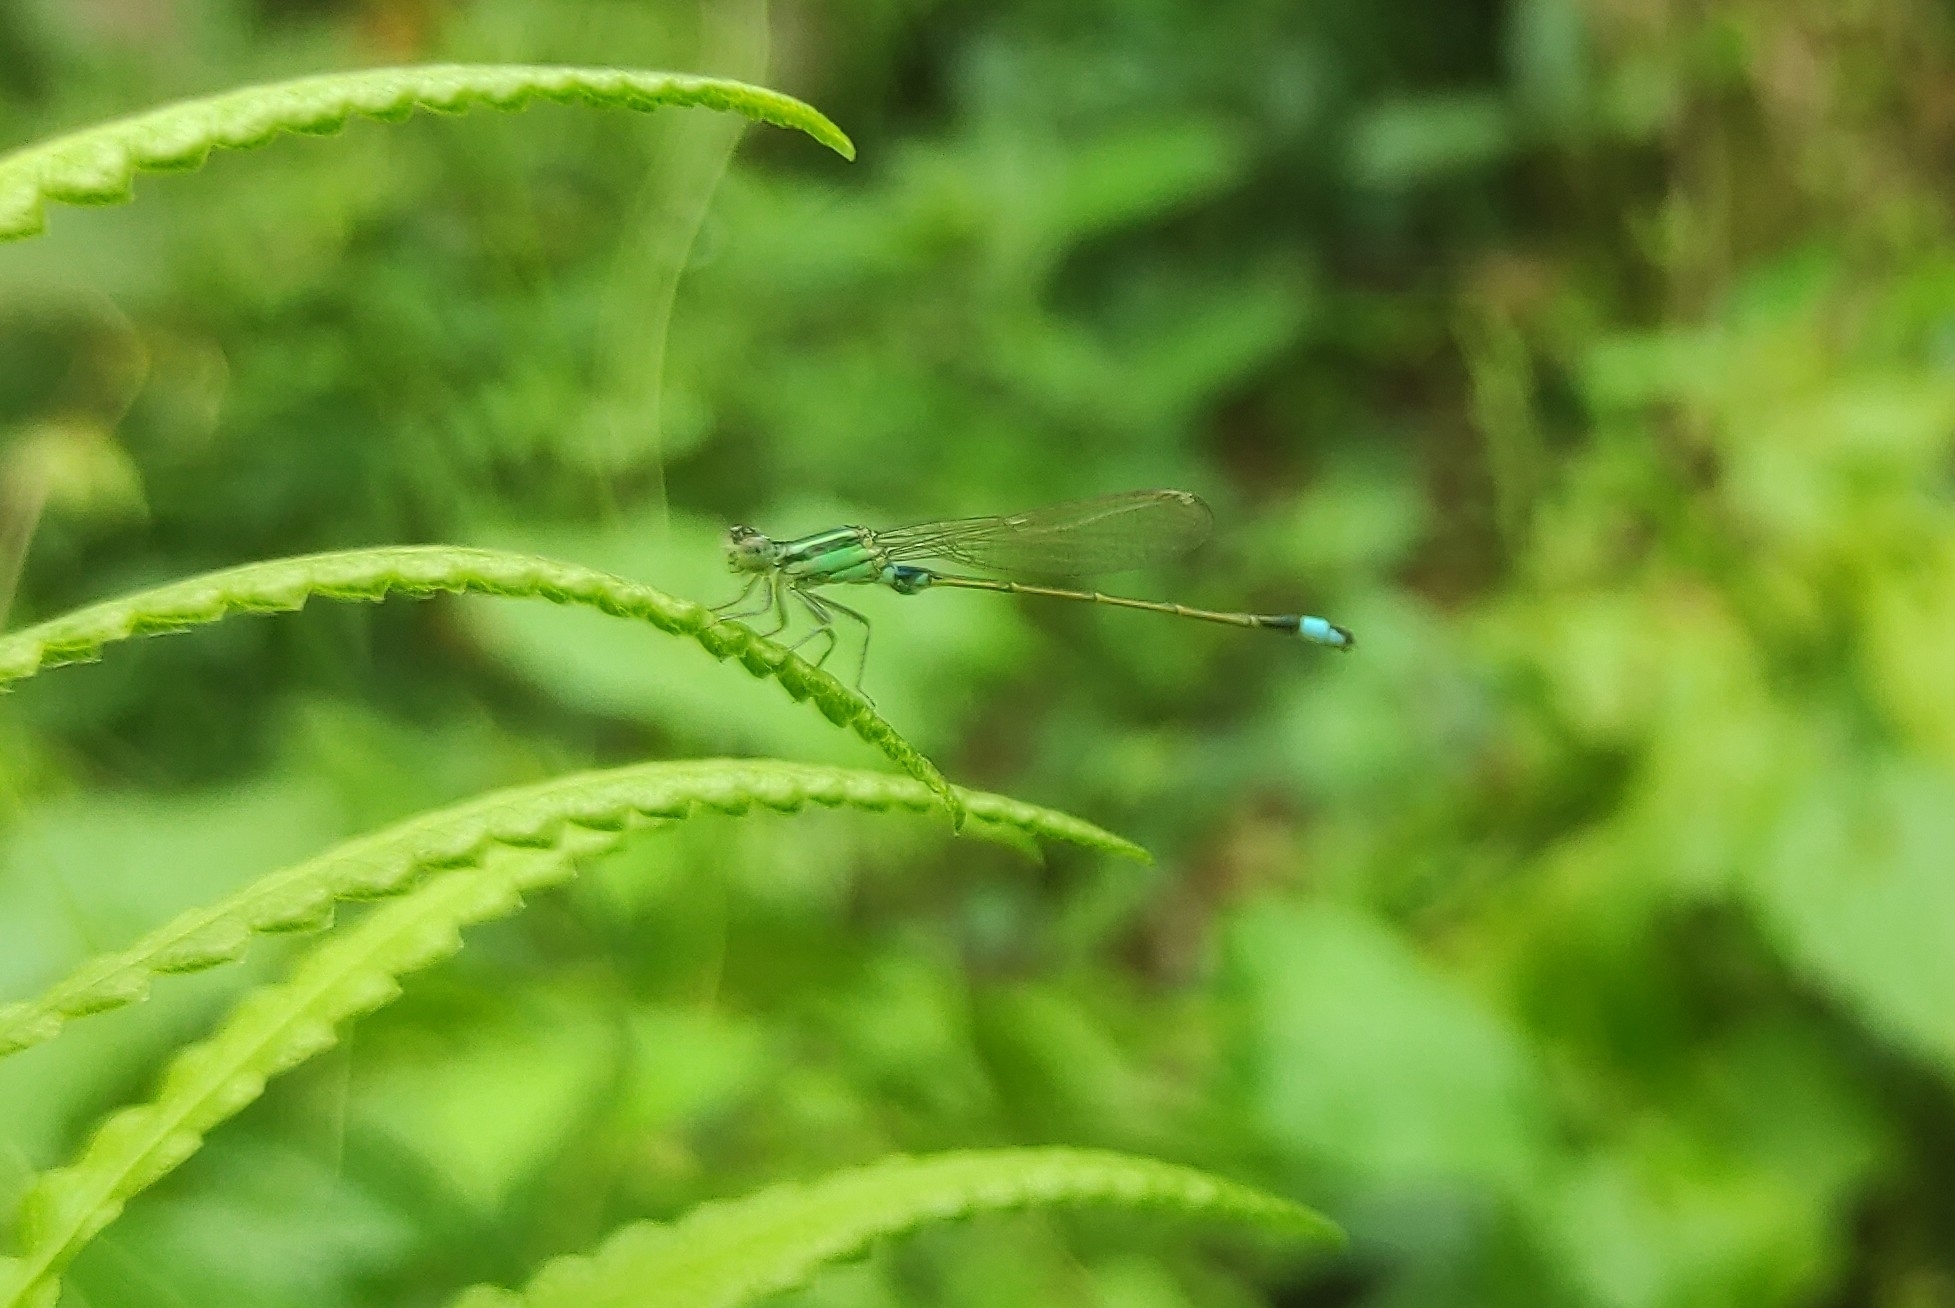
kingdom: Animalia
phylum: Arthropoda
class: Insecta
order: Odonata
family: Coenagrionidae
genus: Ischnura
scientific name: Ischnura senegalensis
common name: Tropical bluetail
